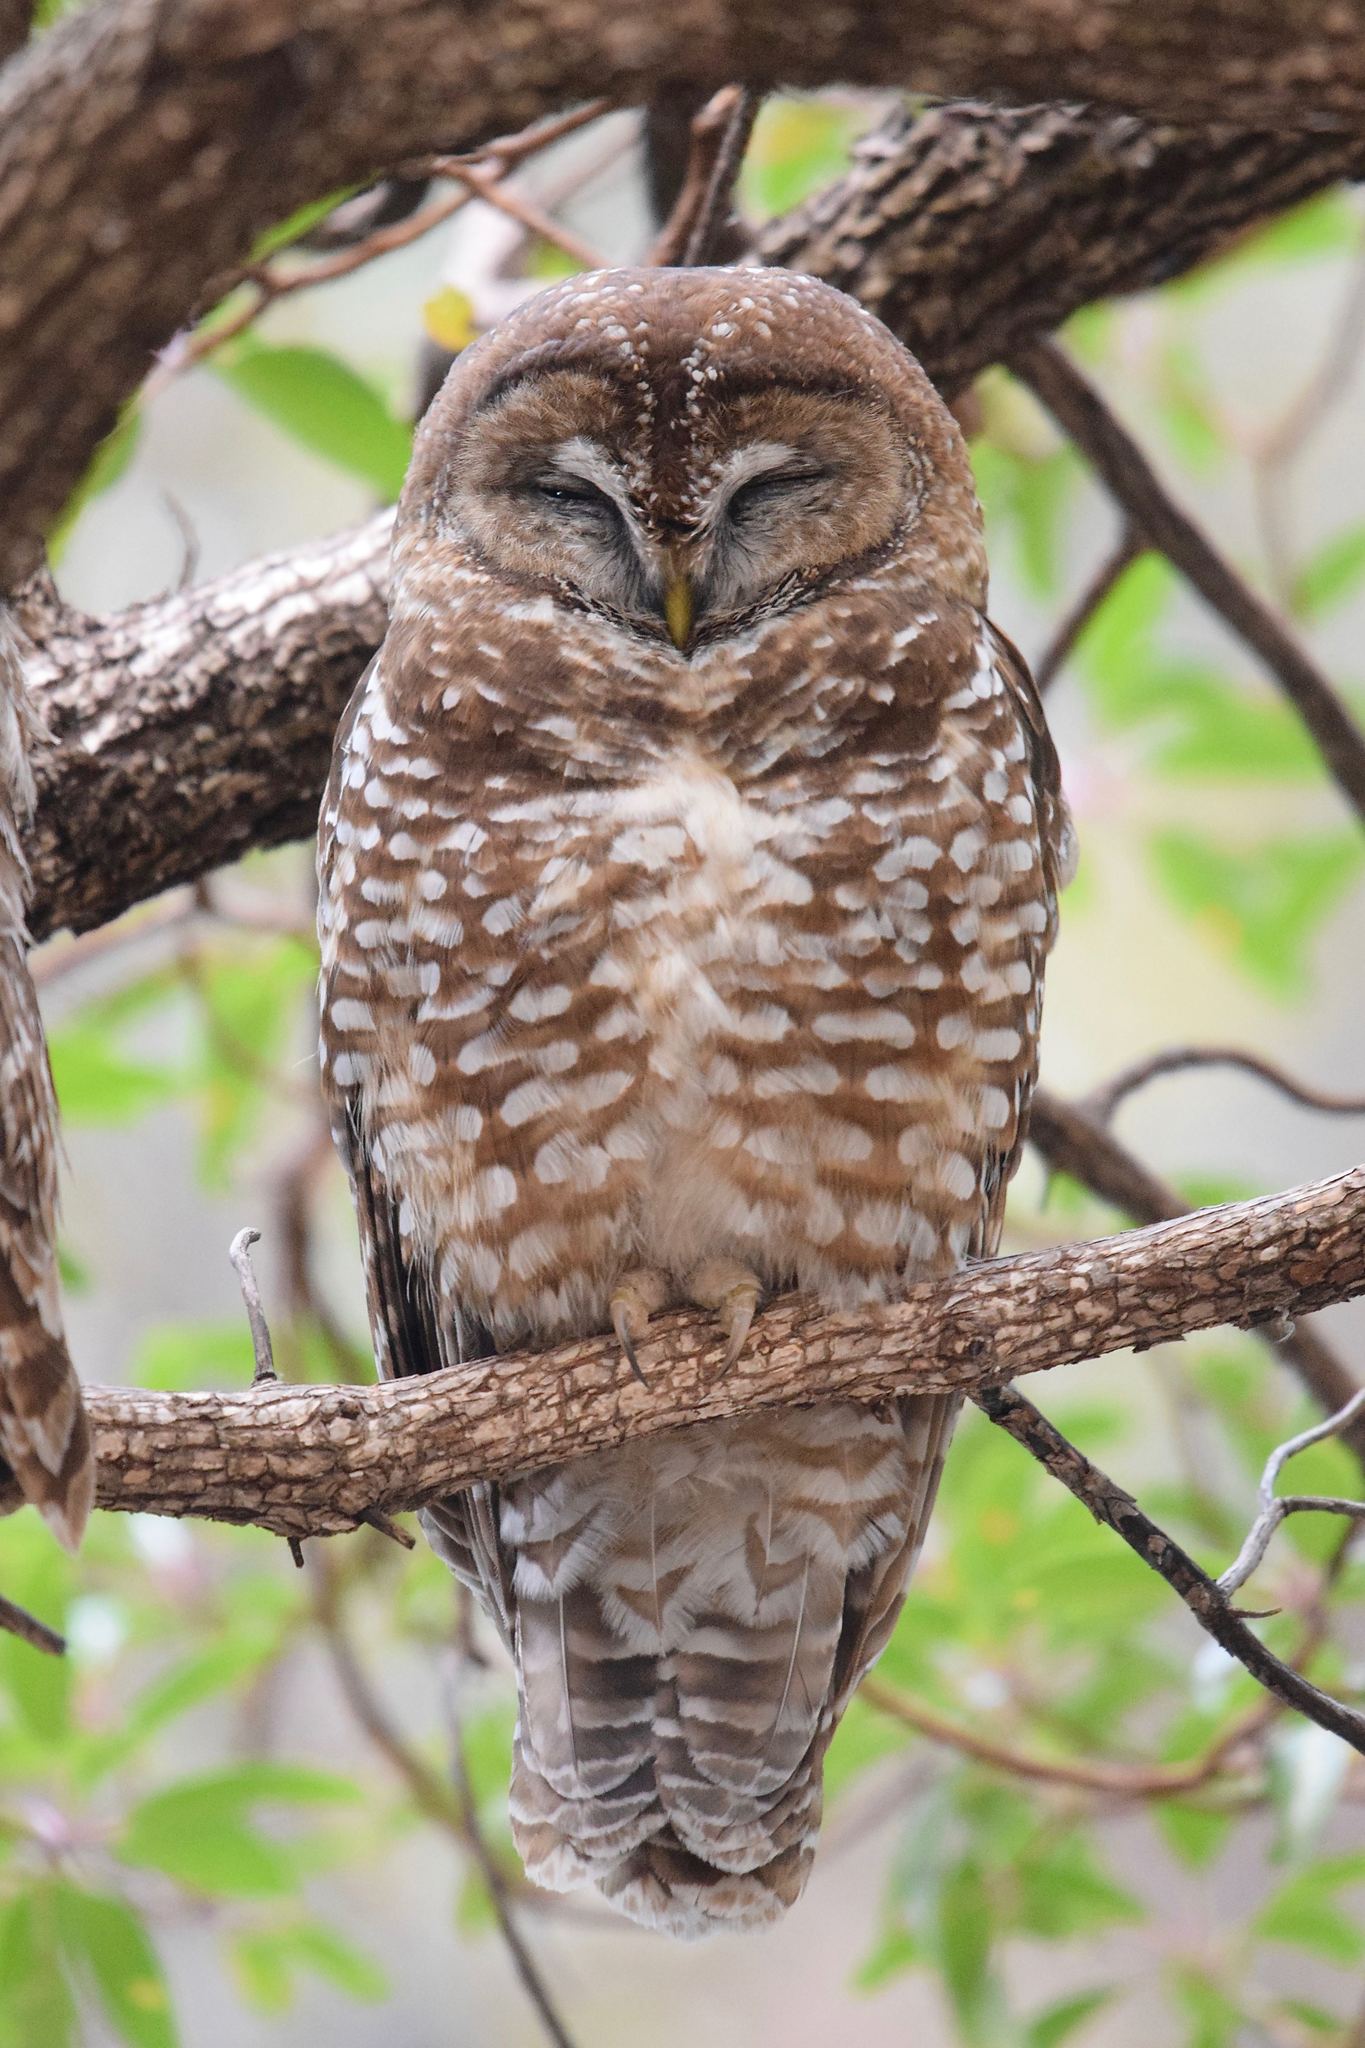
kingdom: Animalia
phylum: Chordata
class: Aves
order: Strigiformes
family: Strigidae
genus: Strix
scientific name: Strix occidentalis
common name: Spotted owl
